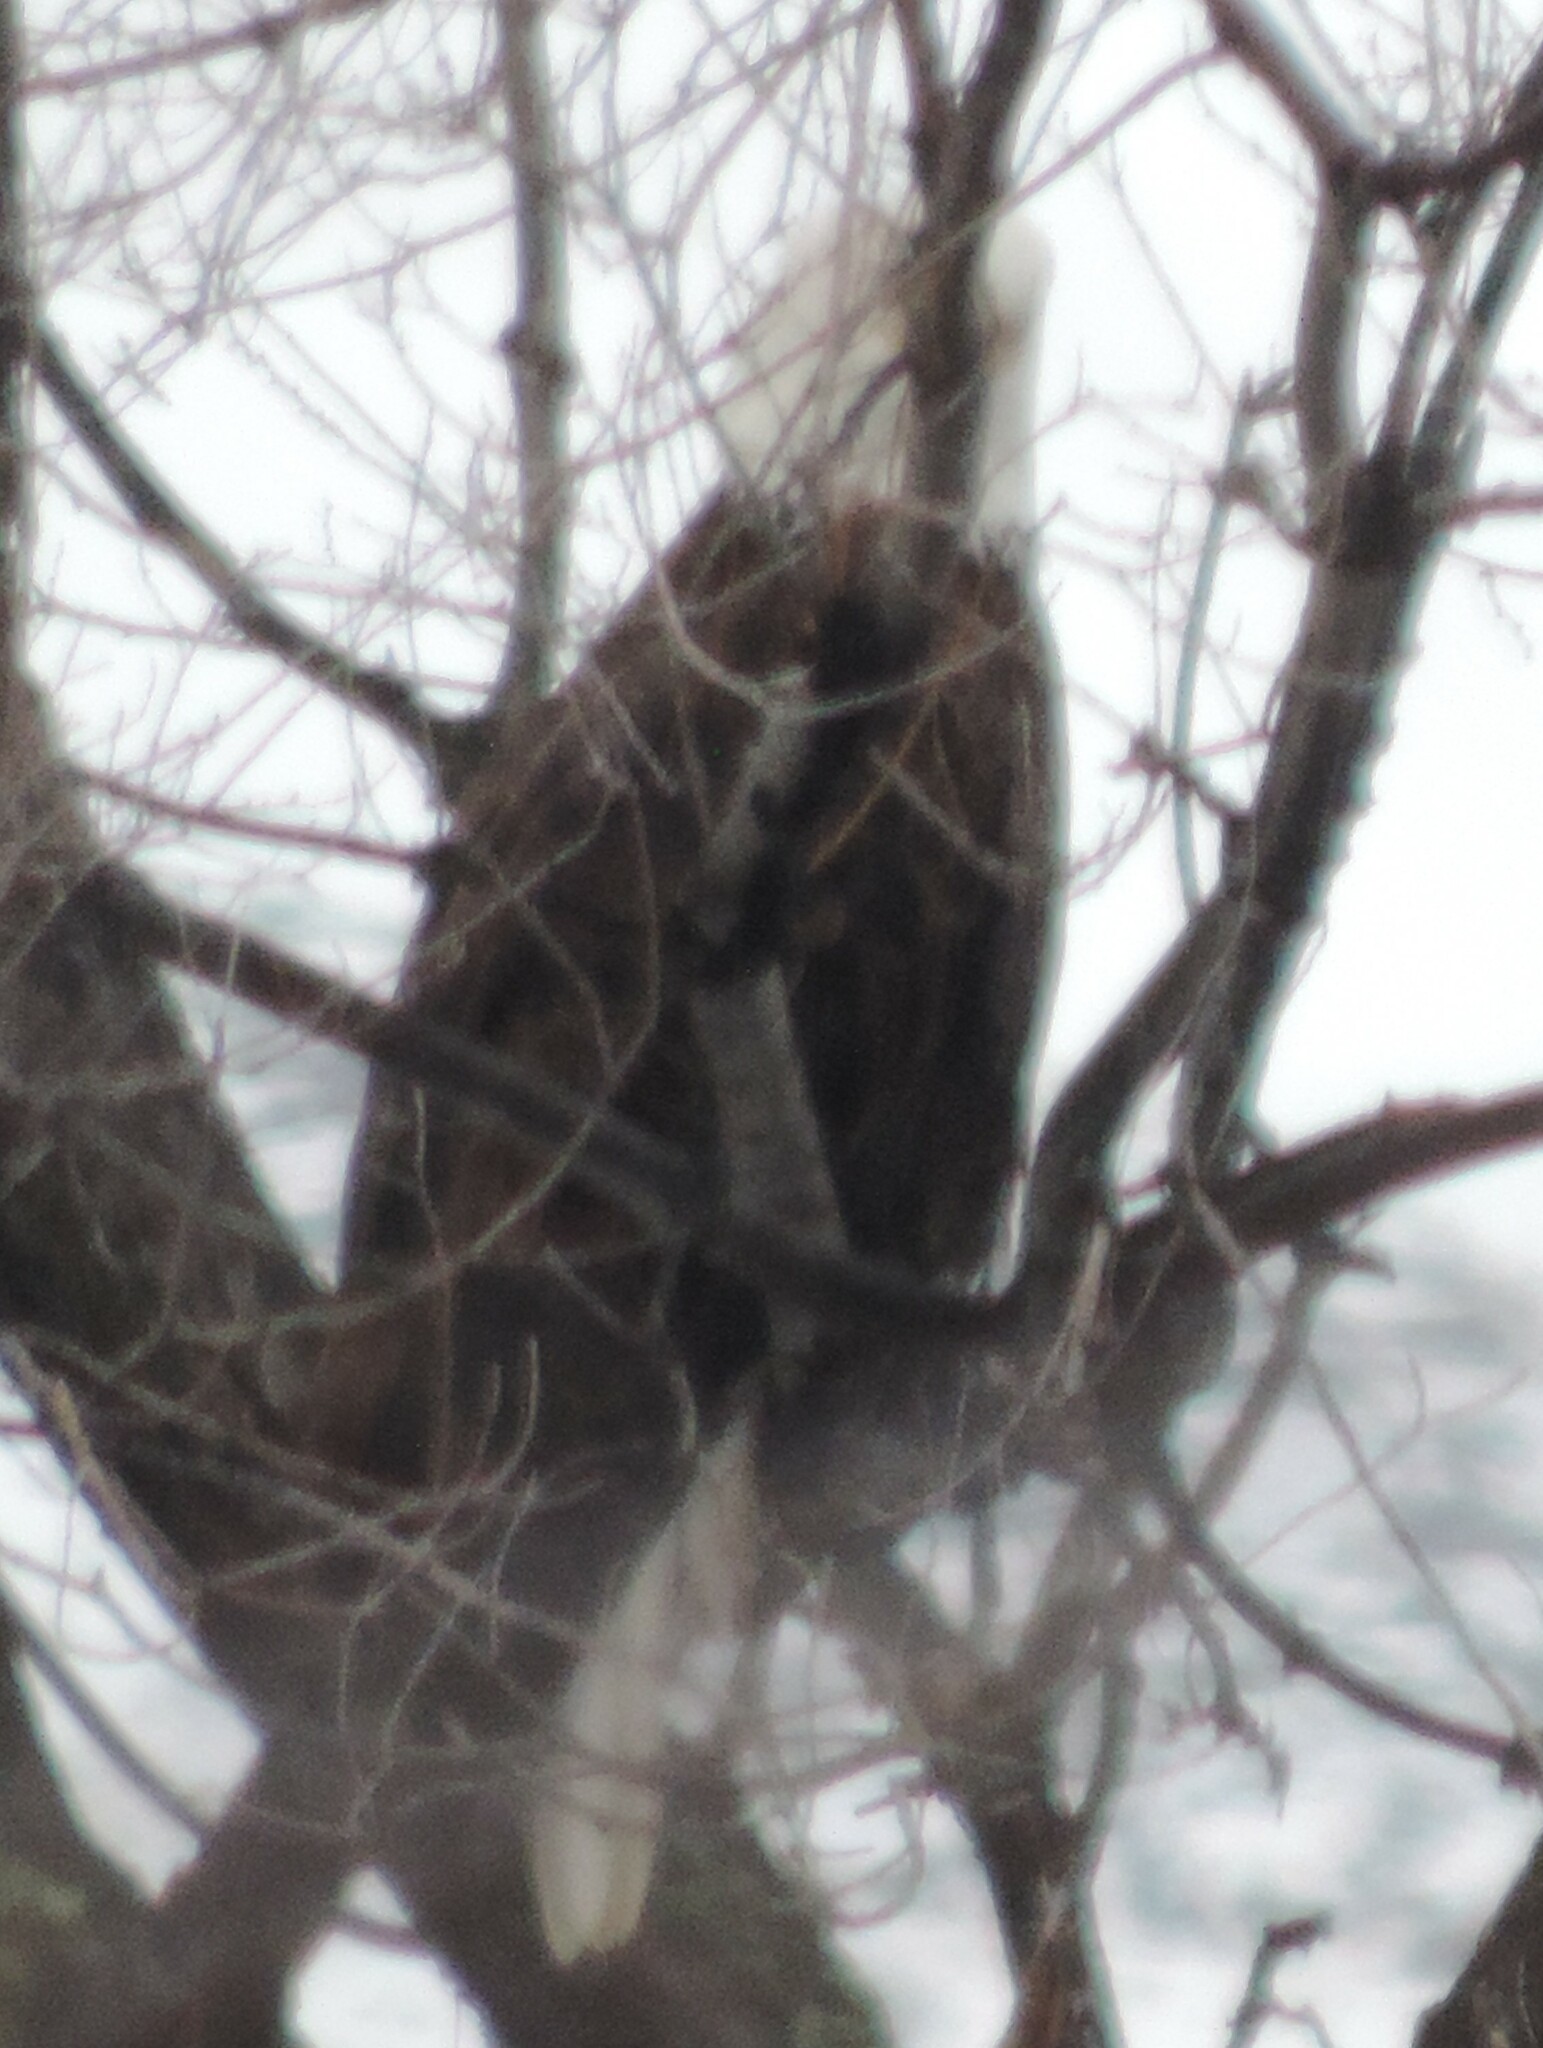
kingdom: Animalia
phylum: Chordata
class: Aves
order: Accipitriformes
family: Accipitridae
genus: Haliaeetus
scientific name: Haliaeetus leucocephalus
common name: Bald eagle
